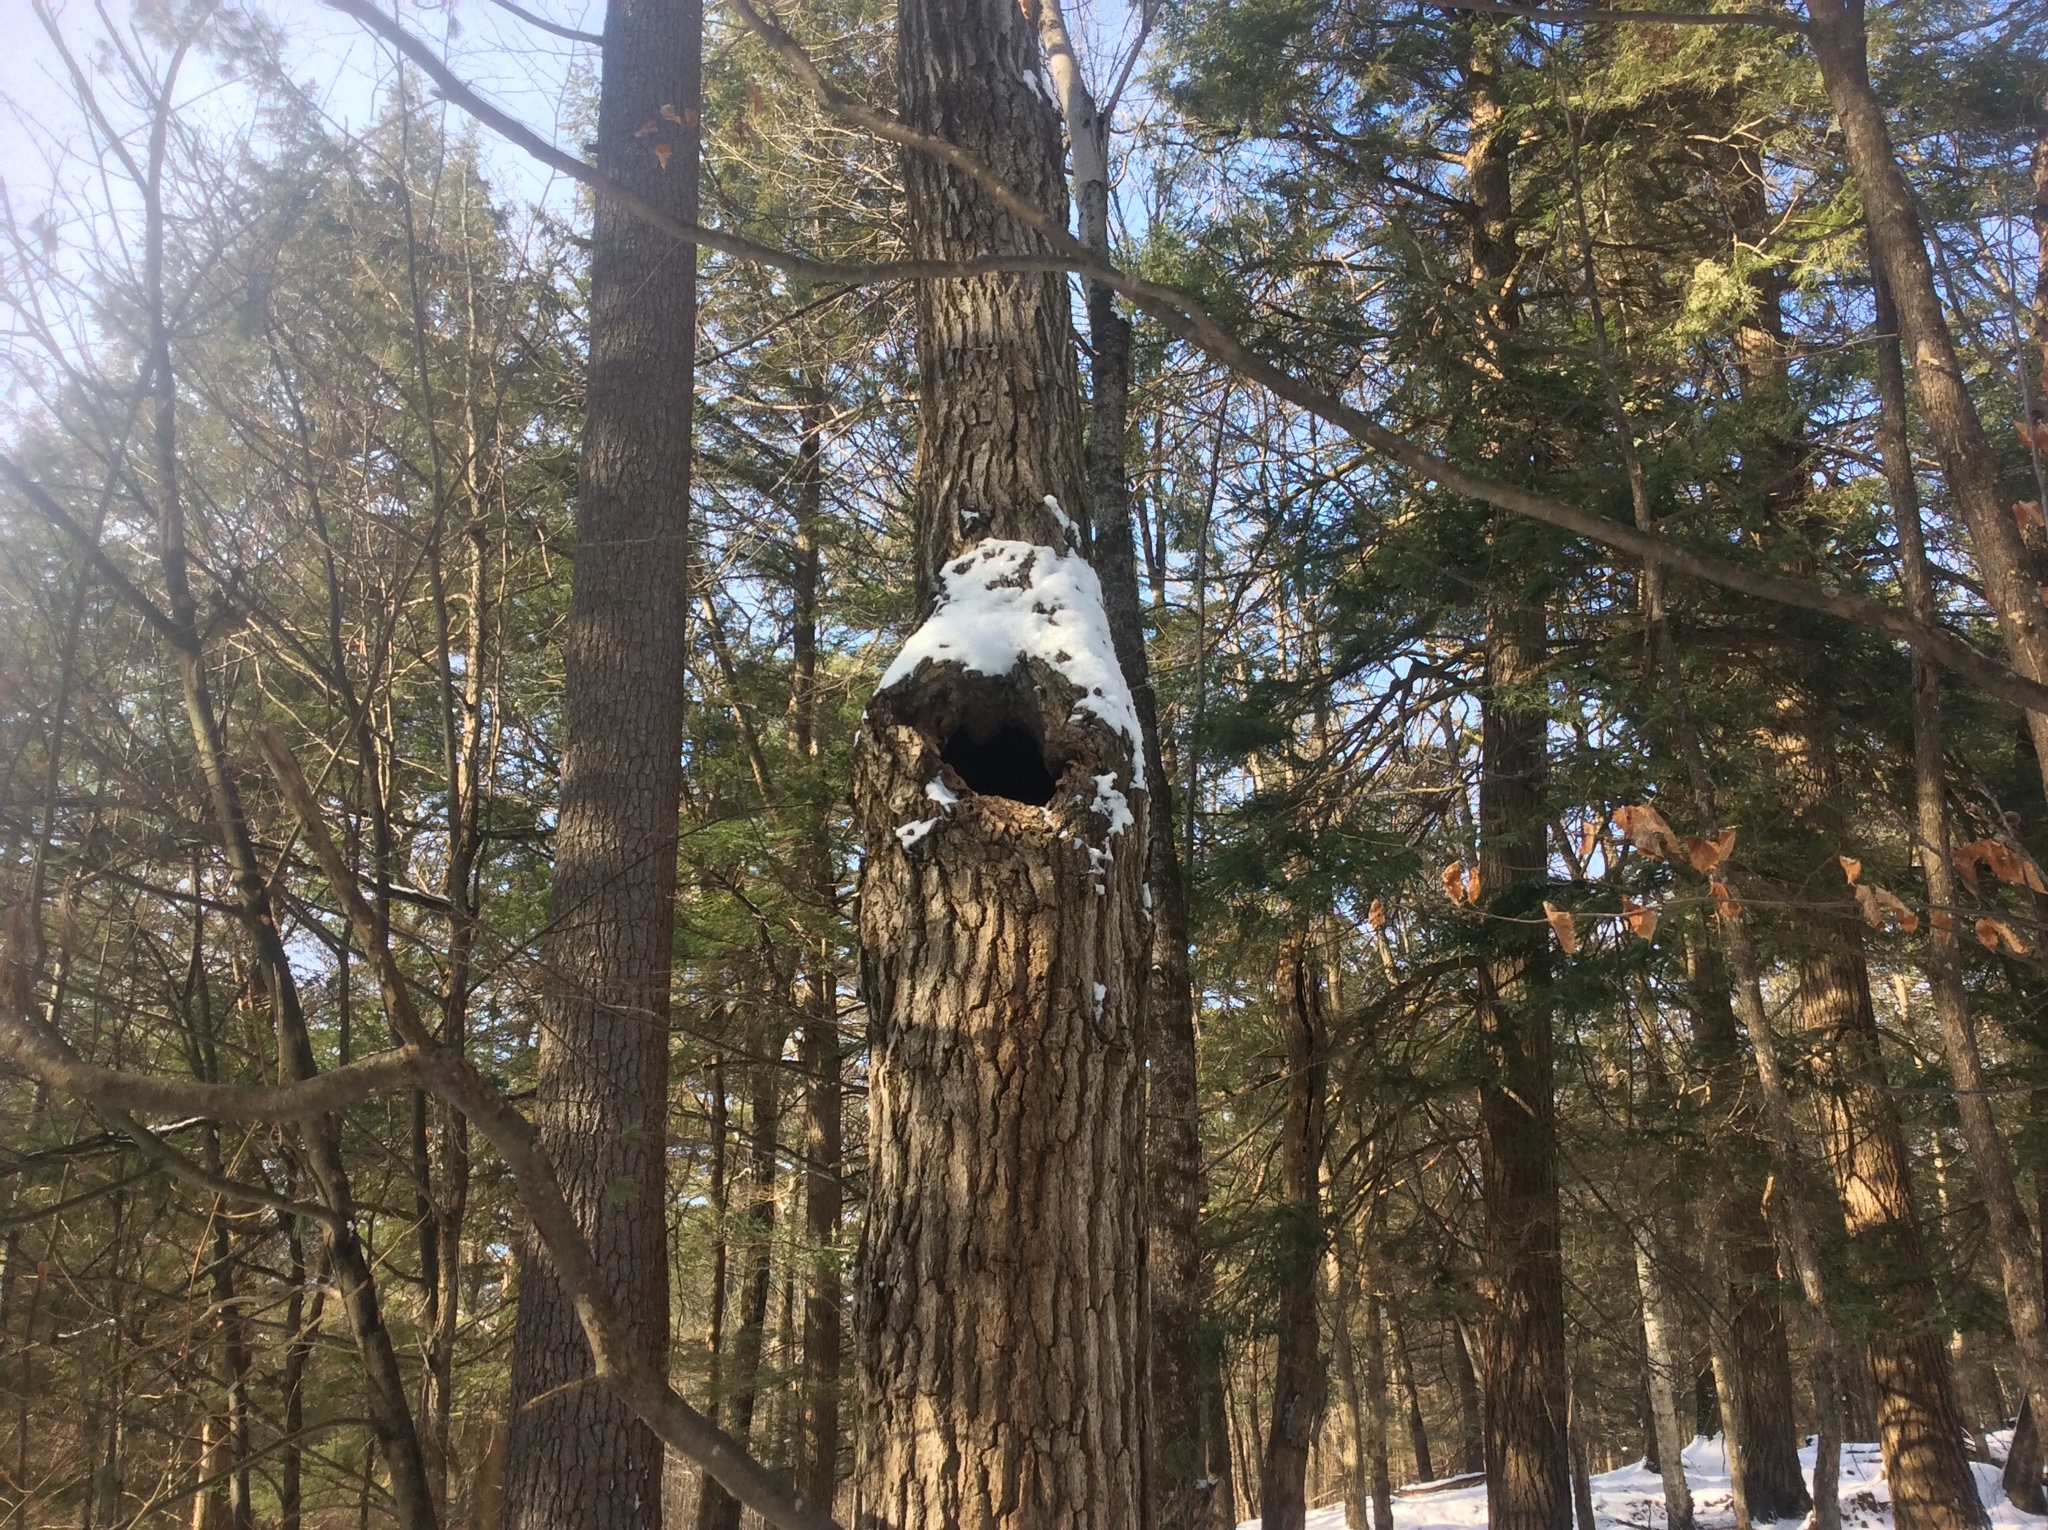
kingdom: Plantae
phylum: Tracheophyta
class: Magnoliopsida
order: Fagales
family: Fagaceae
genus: Quercus
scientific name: Quercus rubra
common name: Red oak
